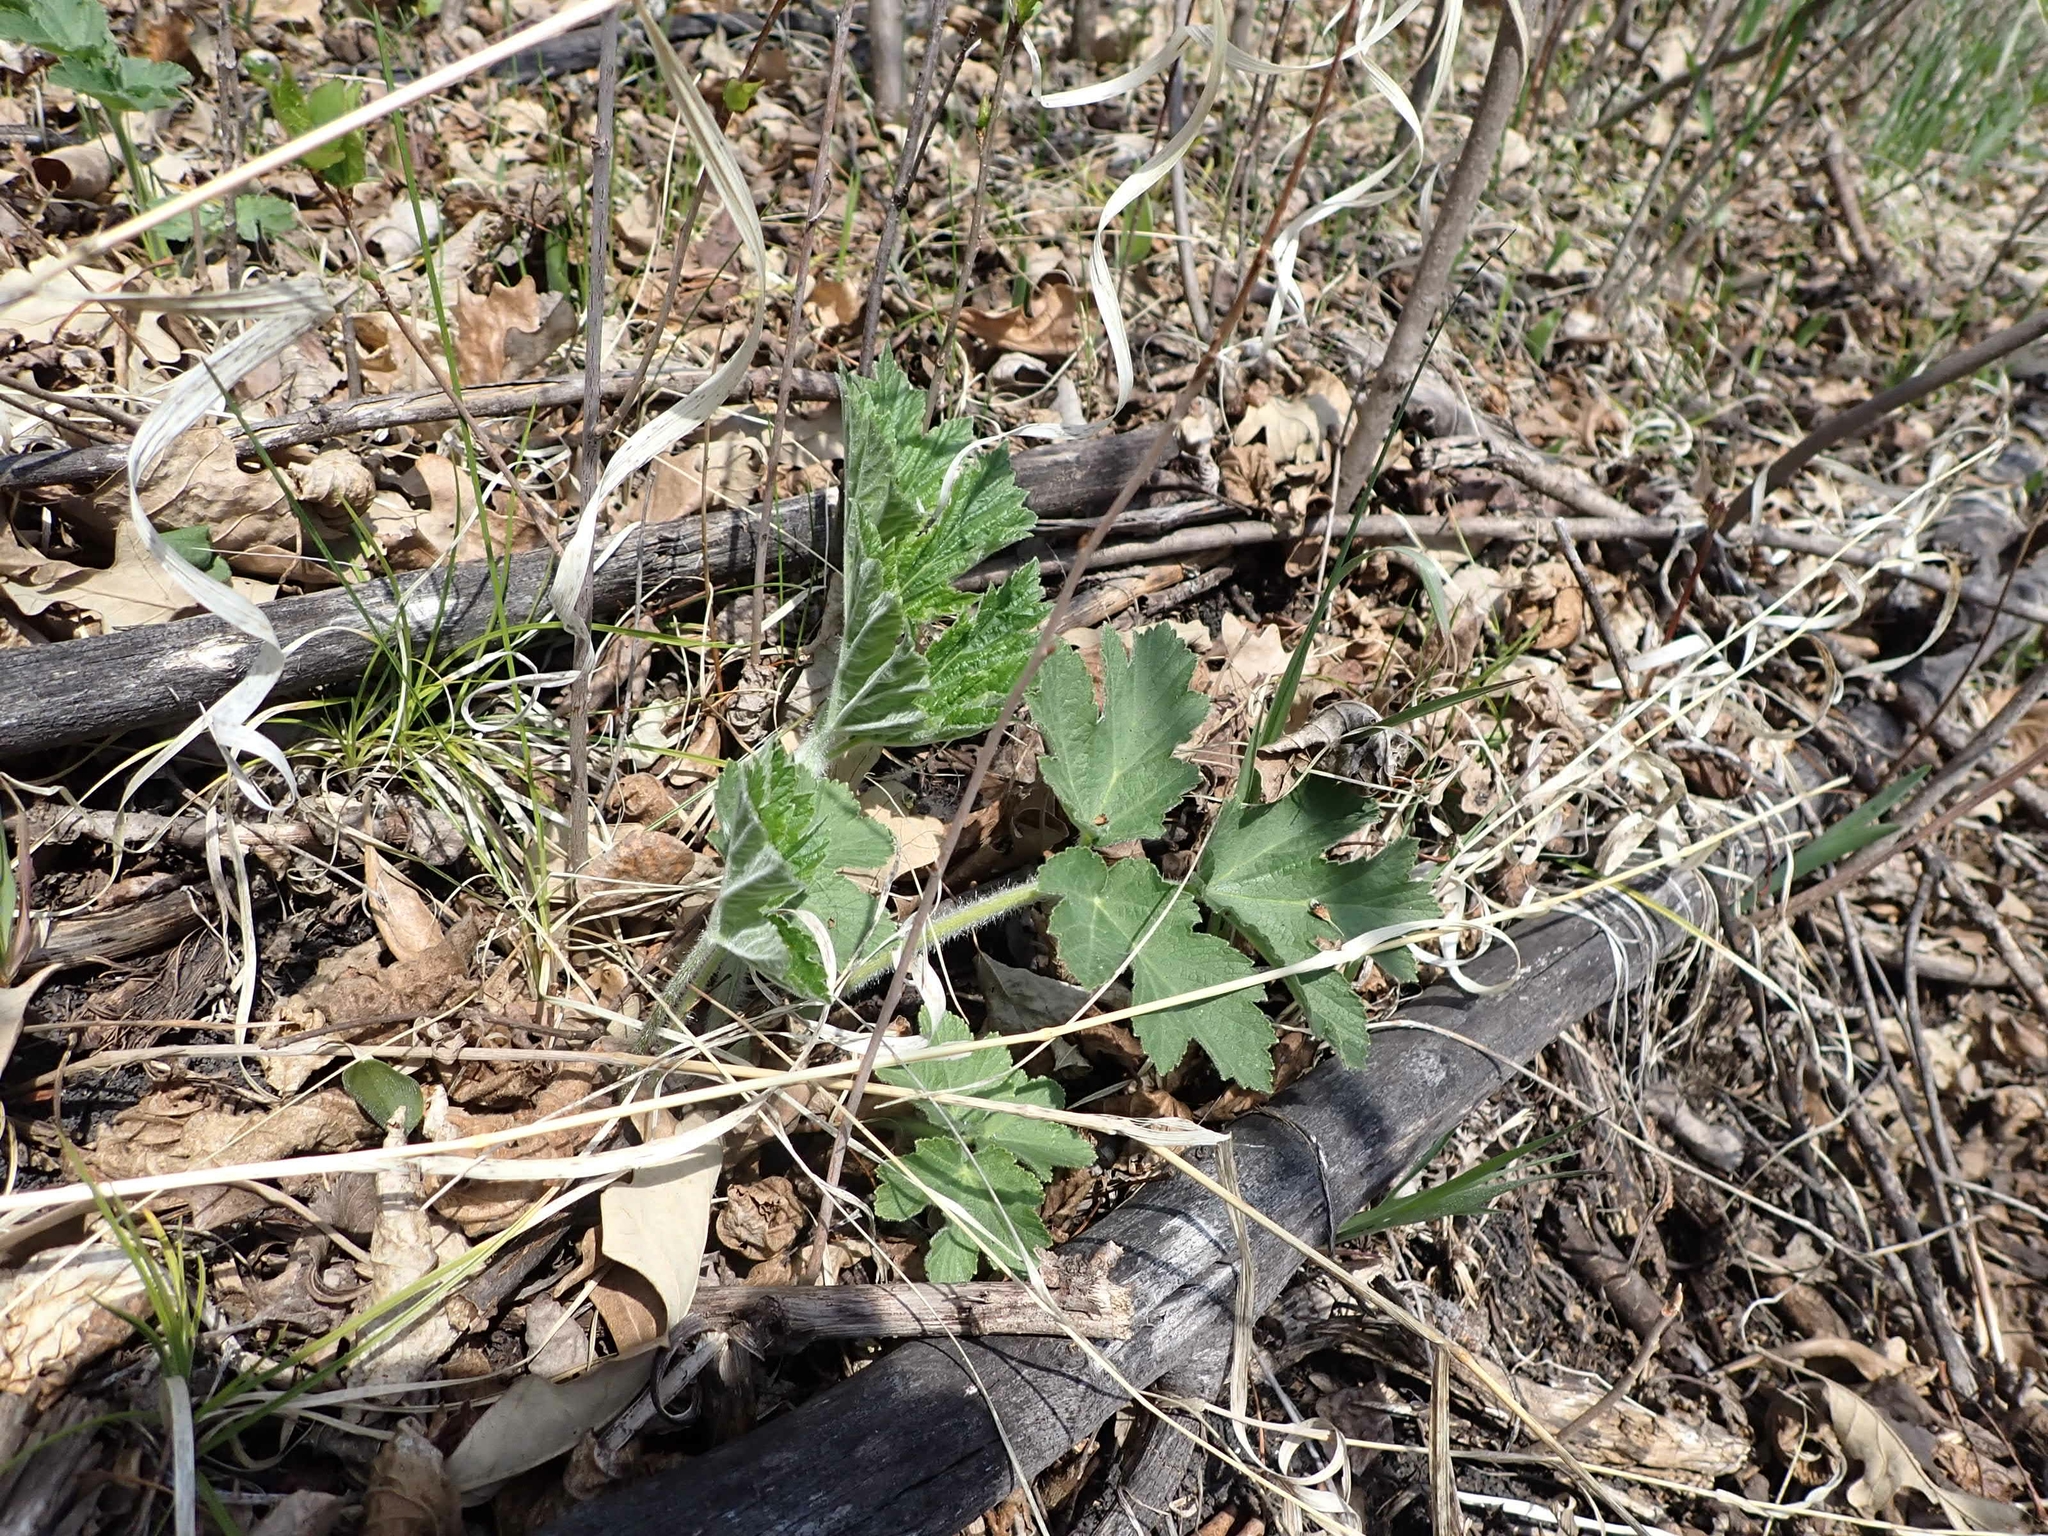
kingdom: Plantae
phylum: Tracheophyta
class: Magnoliopsida
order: Apiales
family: Apiaceae
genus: Heracleum
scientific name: Heracleum maximum
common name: American cow parsnip
